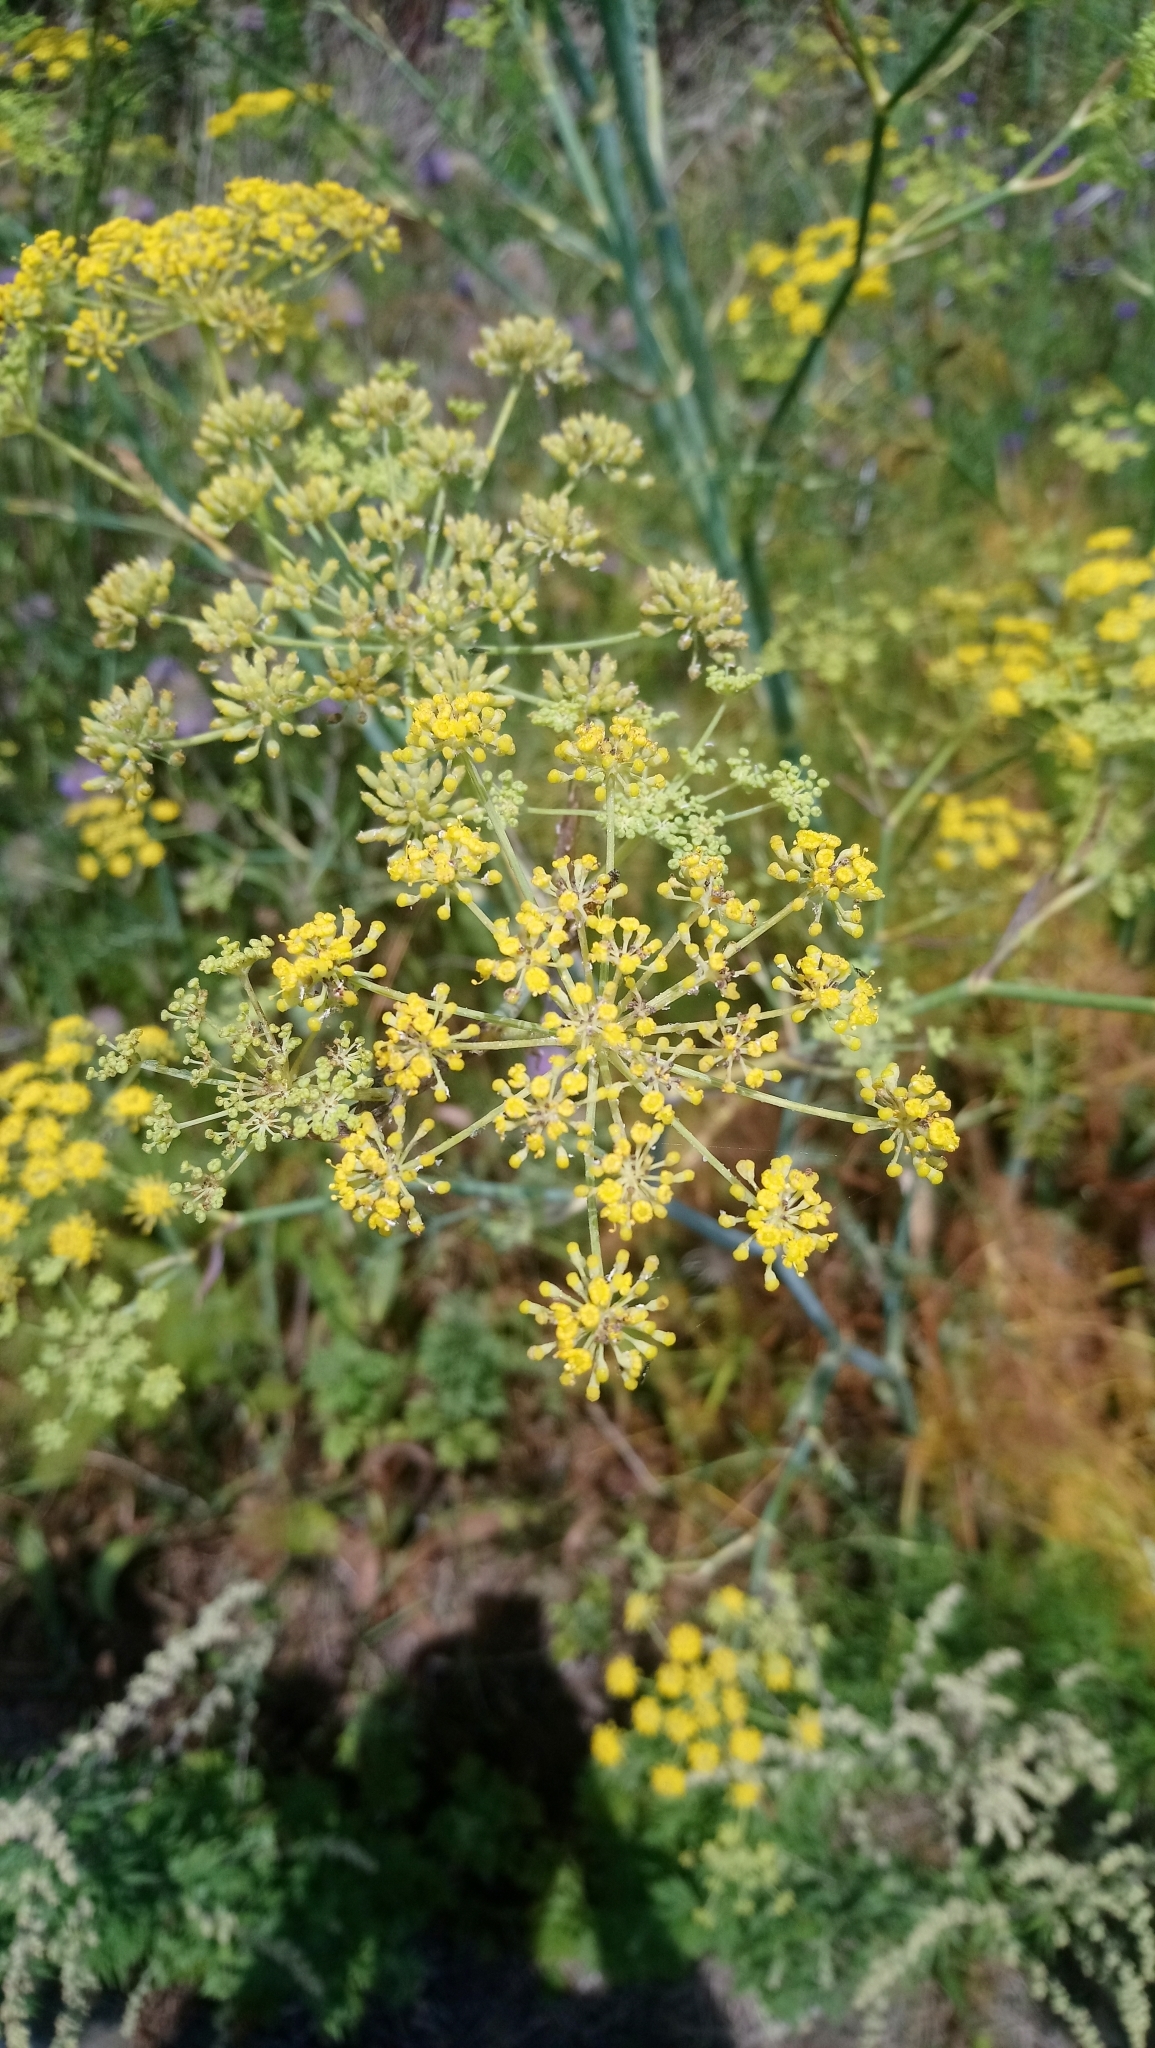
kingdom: Plantae
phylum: Tracheophyta
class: Magnoliopsida
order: Apiales
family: Apiaceae
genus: Foeniculum
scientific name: Foeniculum vulgare
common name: Fennel
